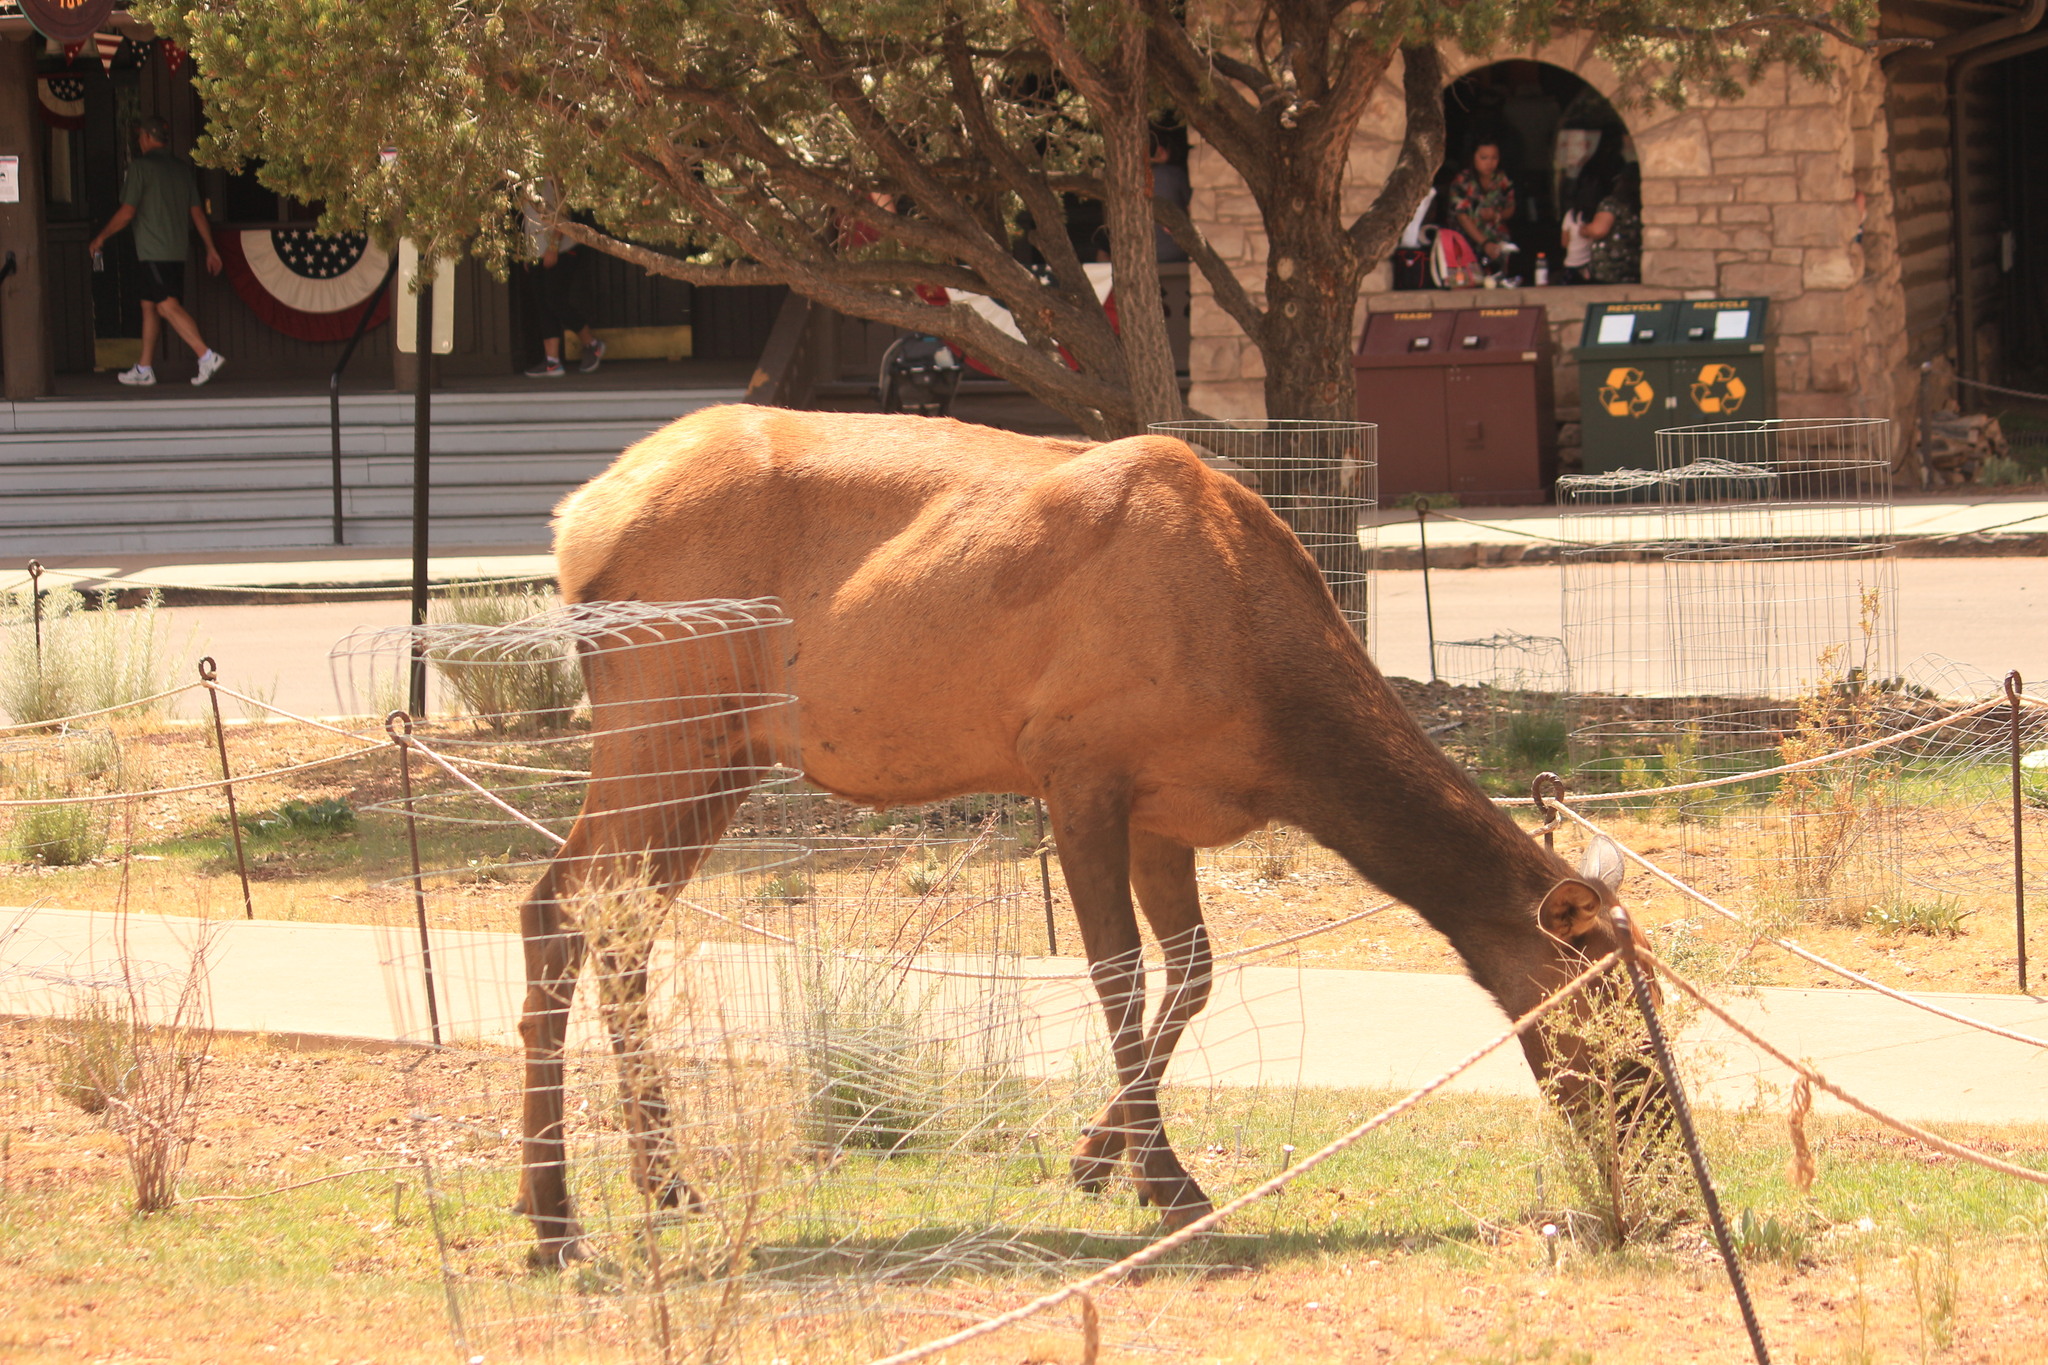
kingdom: Animalia
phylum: Chordata
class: Mammalia
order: Artiodactyla
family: Cervidae
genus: Cervus
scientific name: Cervus elaphus
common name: Red deer
